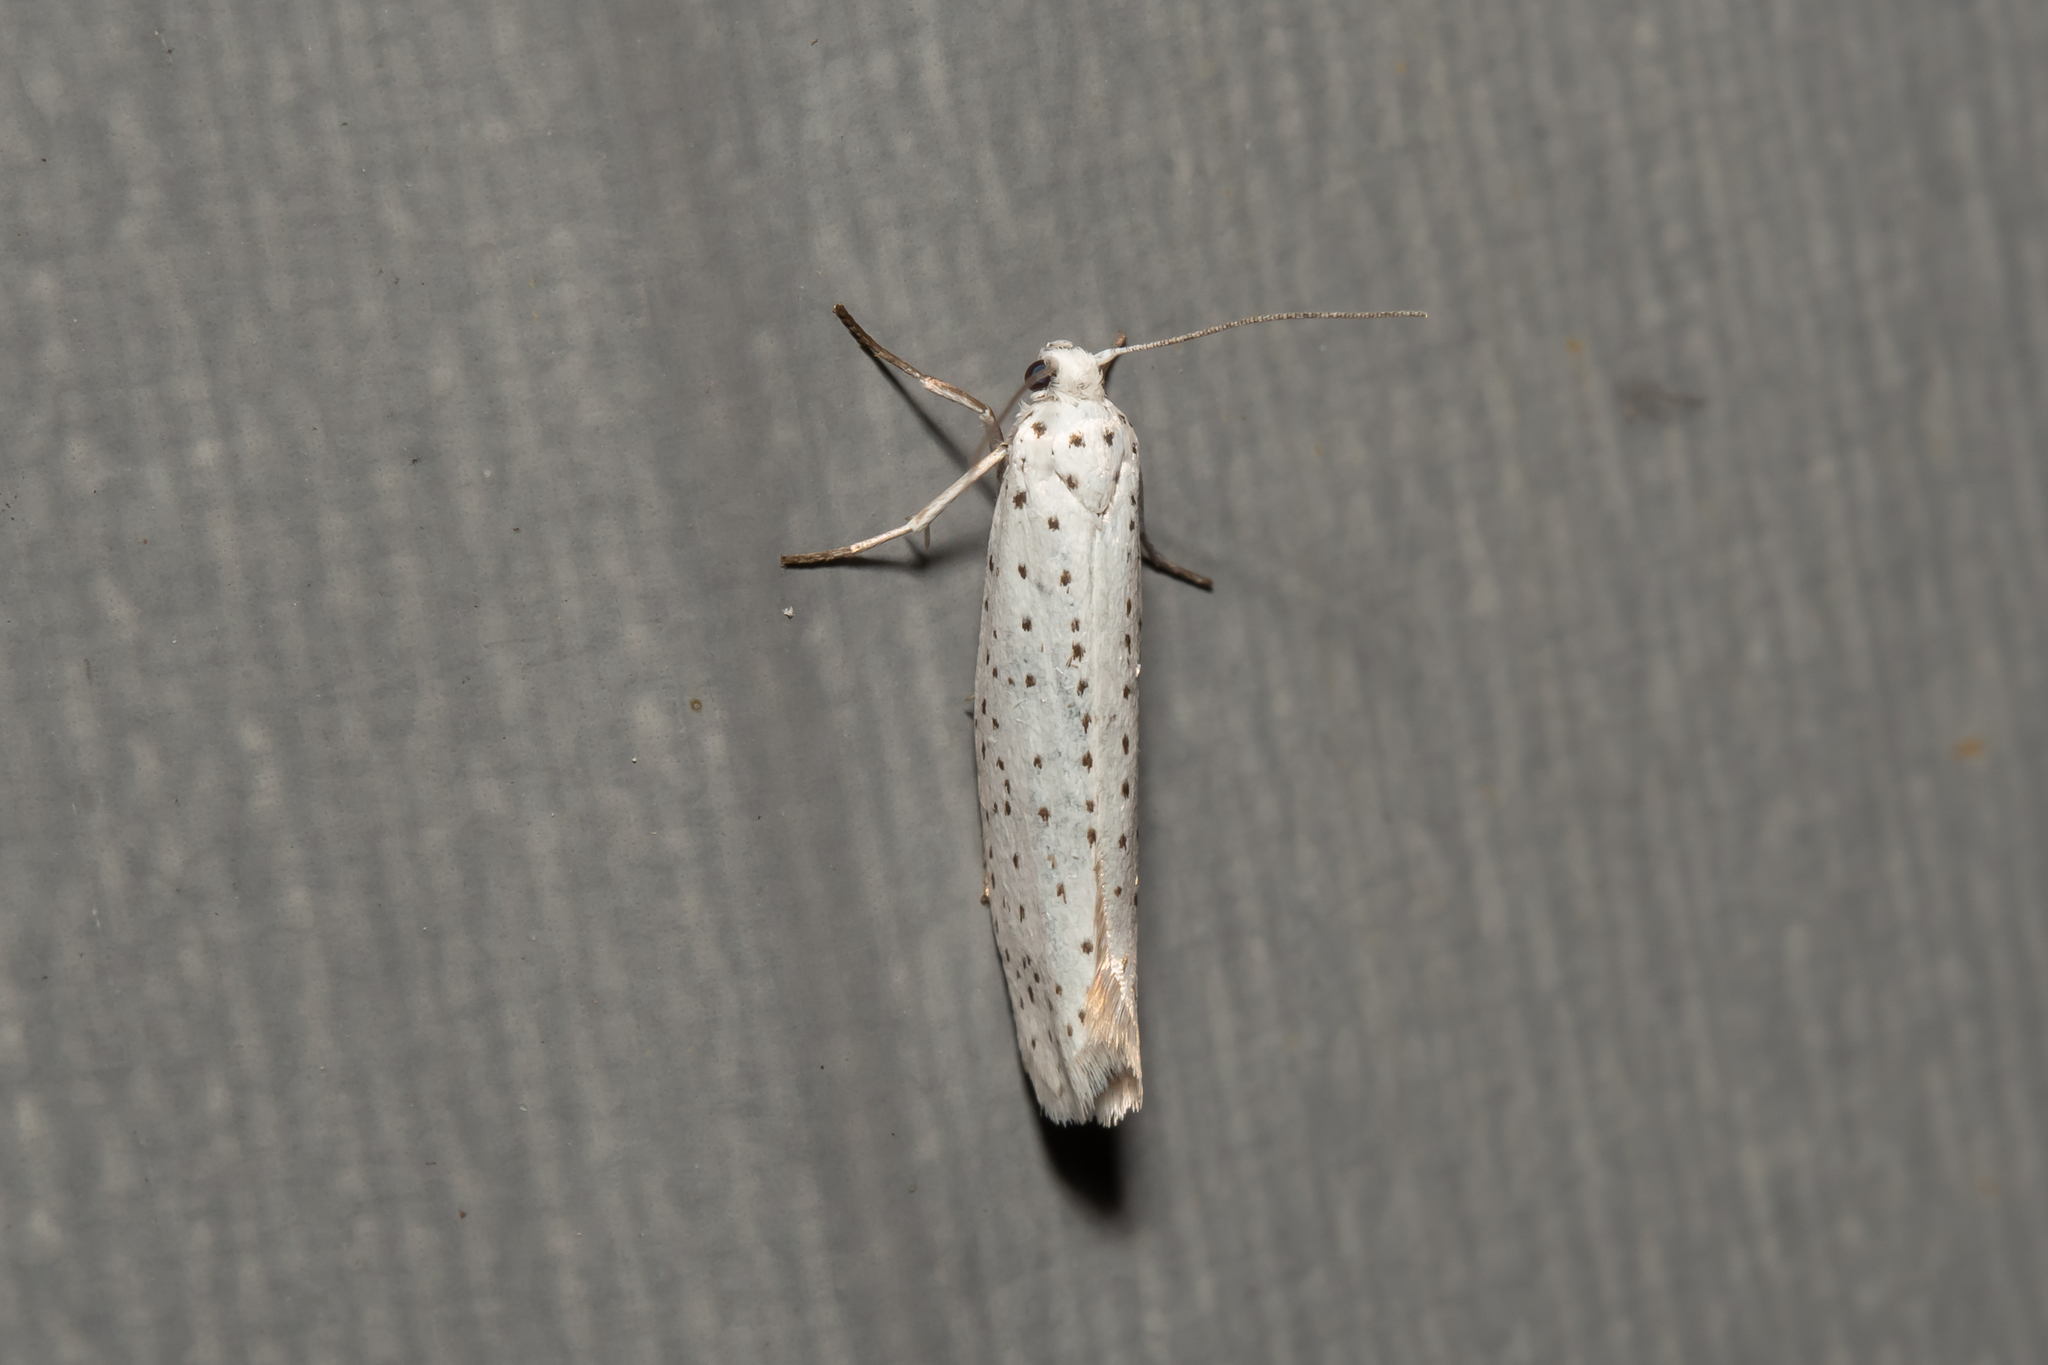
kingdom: Animalia
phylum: Arthropoda
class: Insecta
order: Lepidoptera
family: Yponomeutidae
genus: Yponomeuta
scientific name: Yponomeuta evonymella
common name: Bird-cherry ermine
